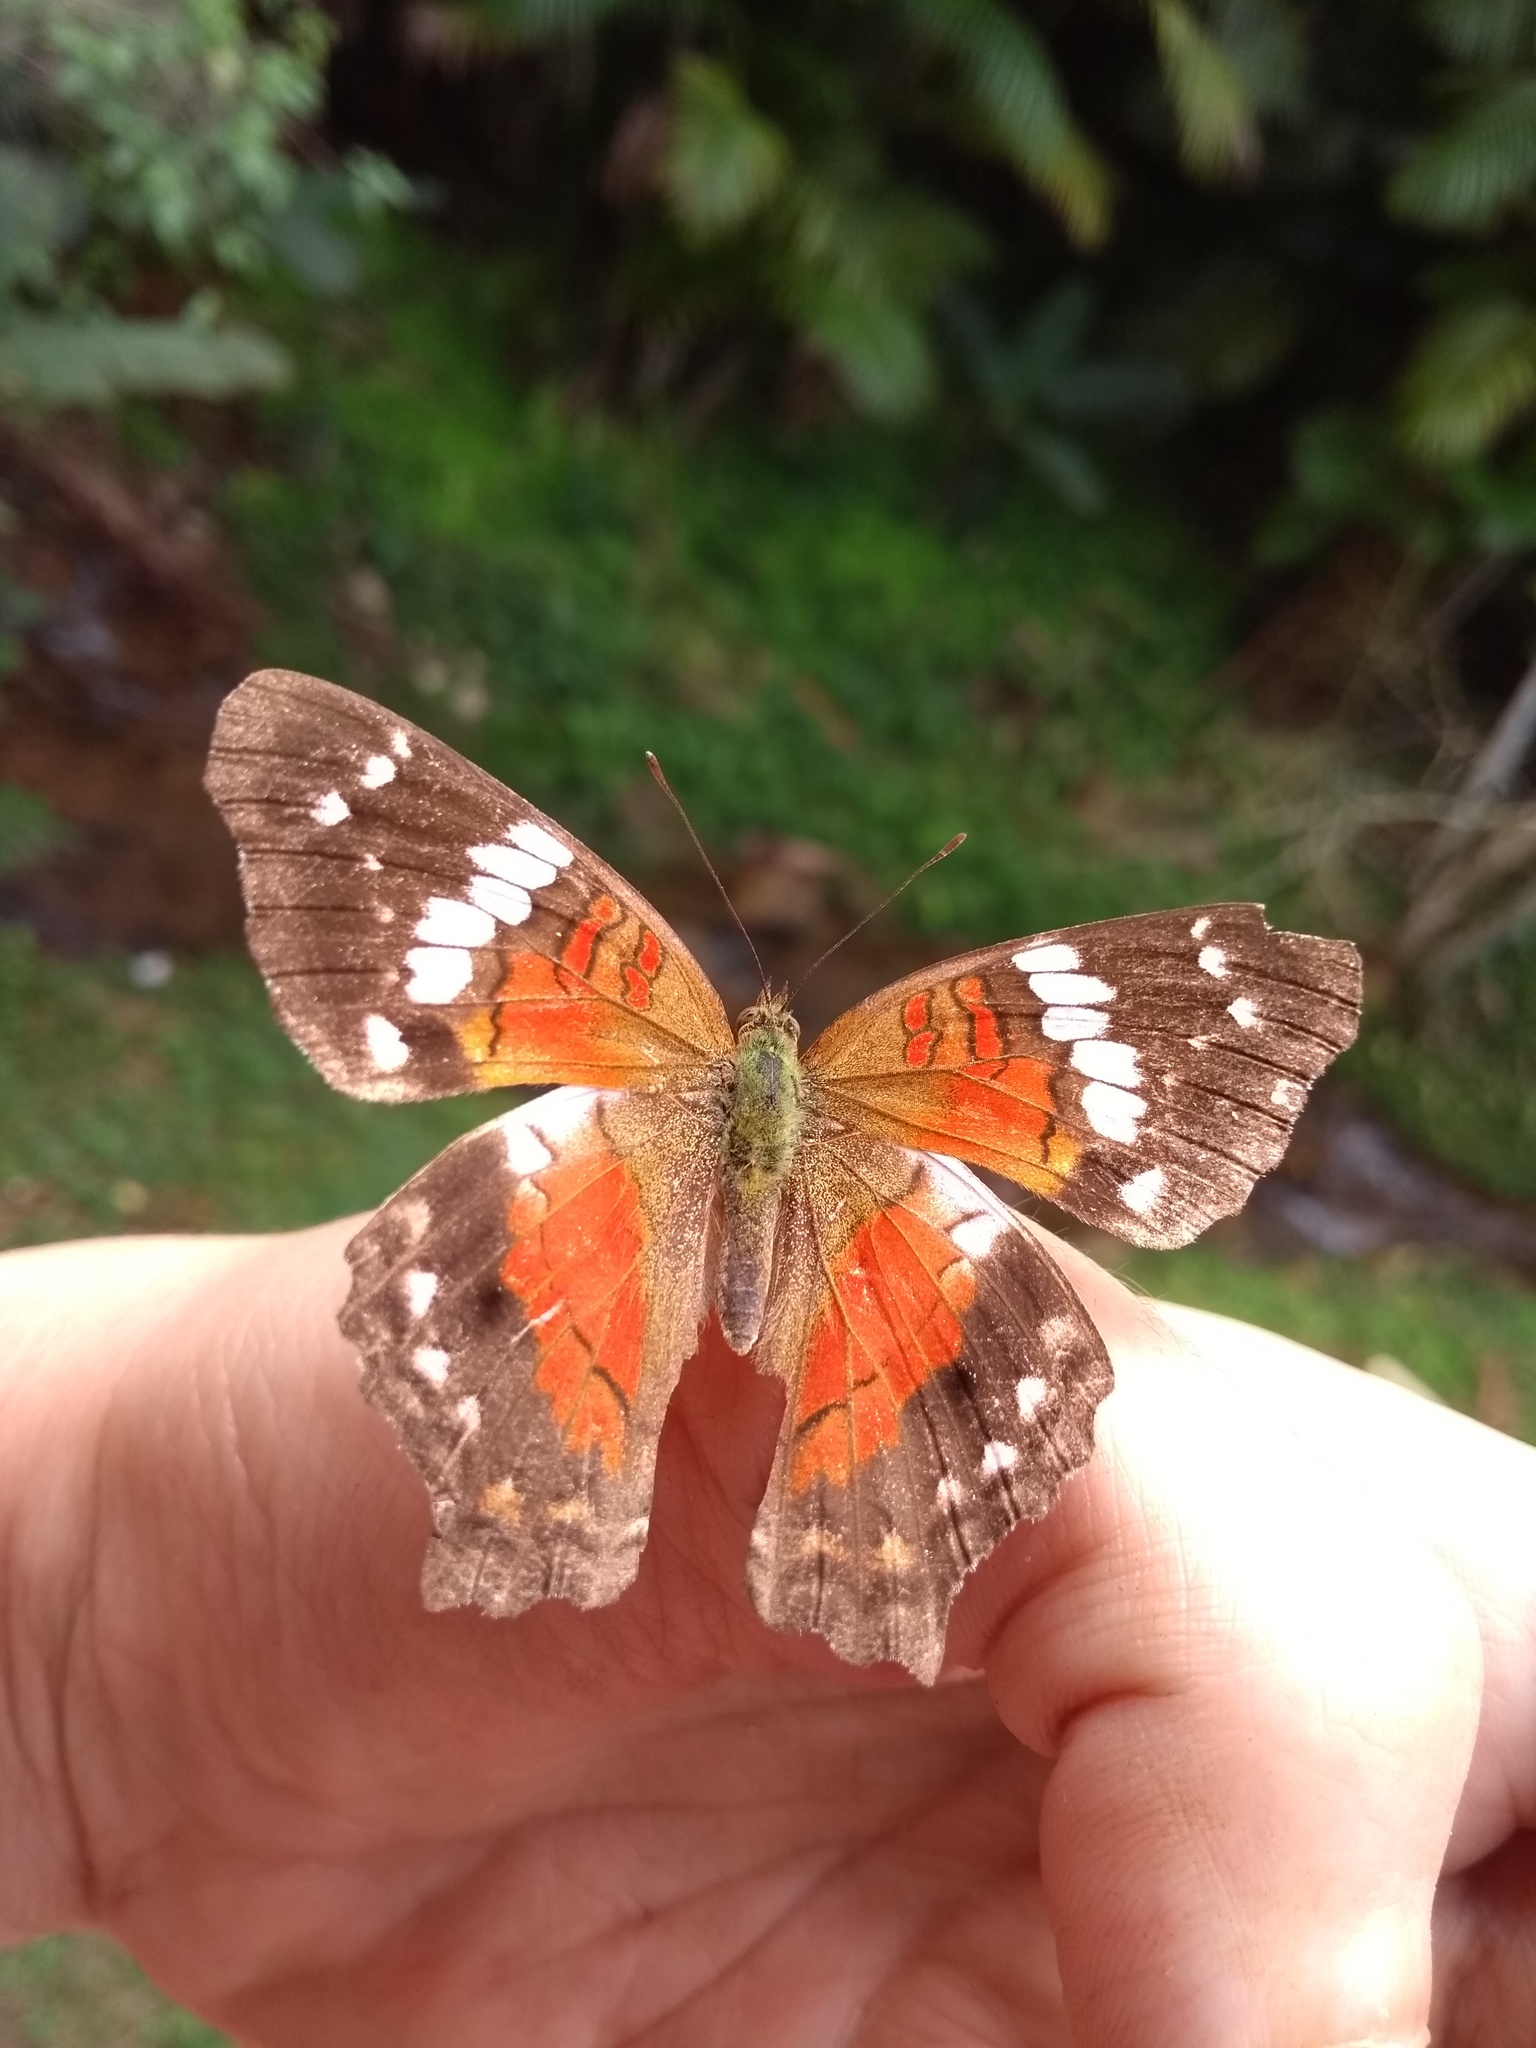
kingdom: Animalia
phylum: Arthropoda
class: Insecta
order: Lepidoptera
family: Nymphalidae
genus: Anartia
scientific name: Anartia amathea
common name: Red peacock
